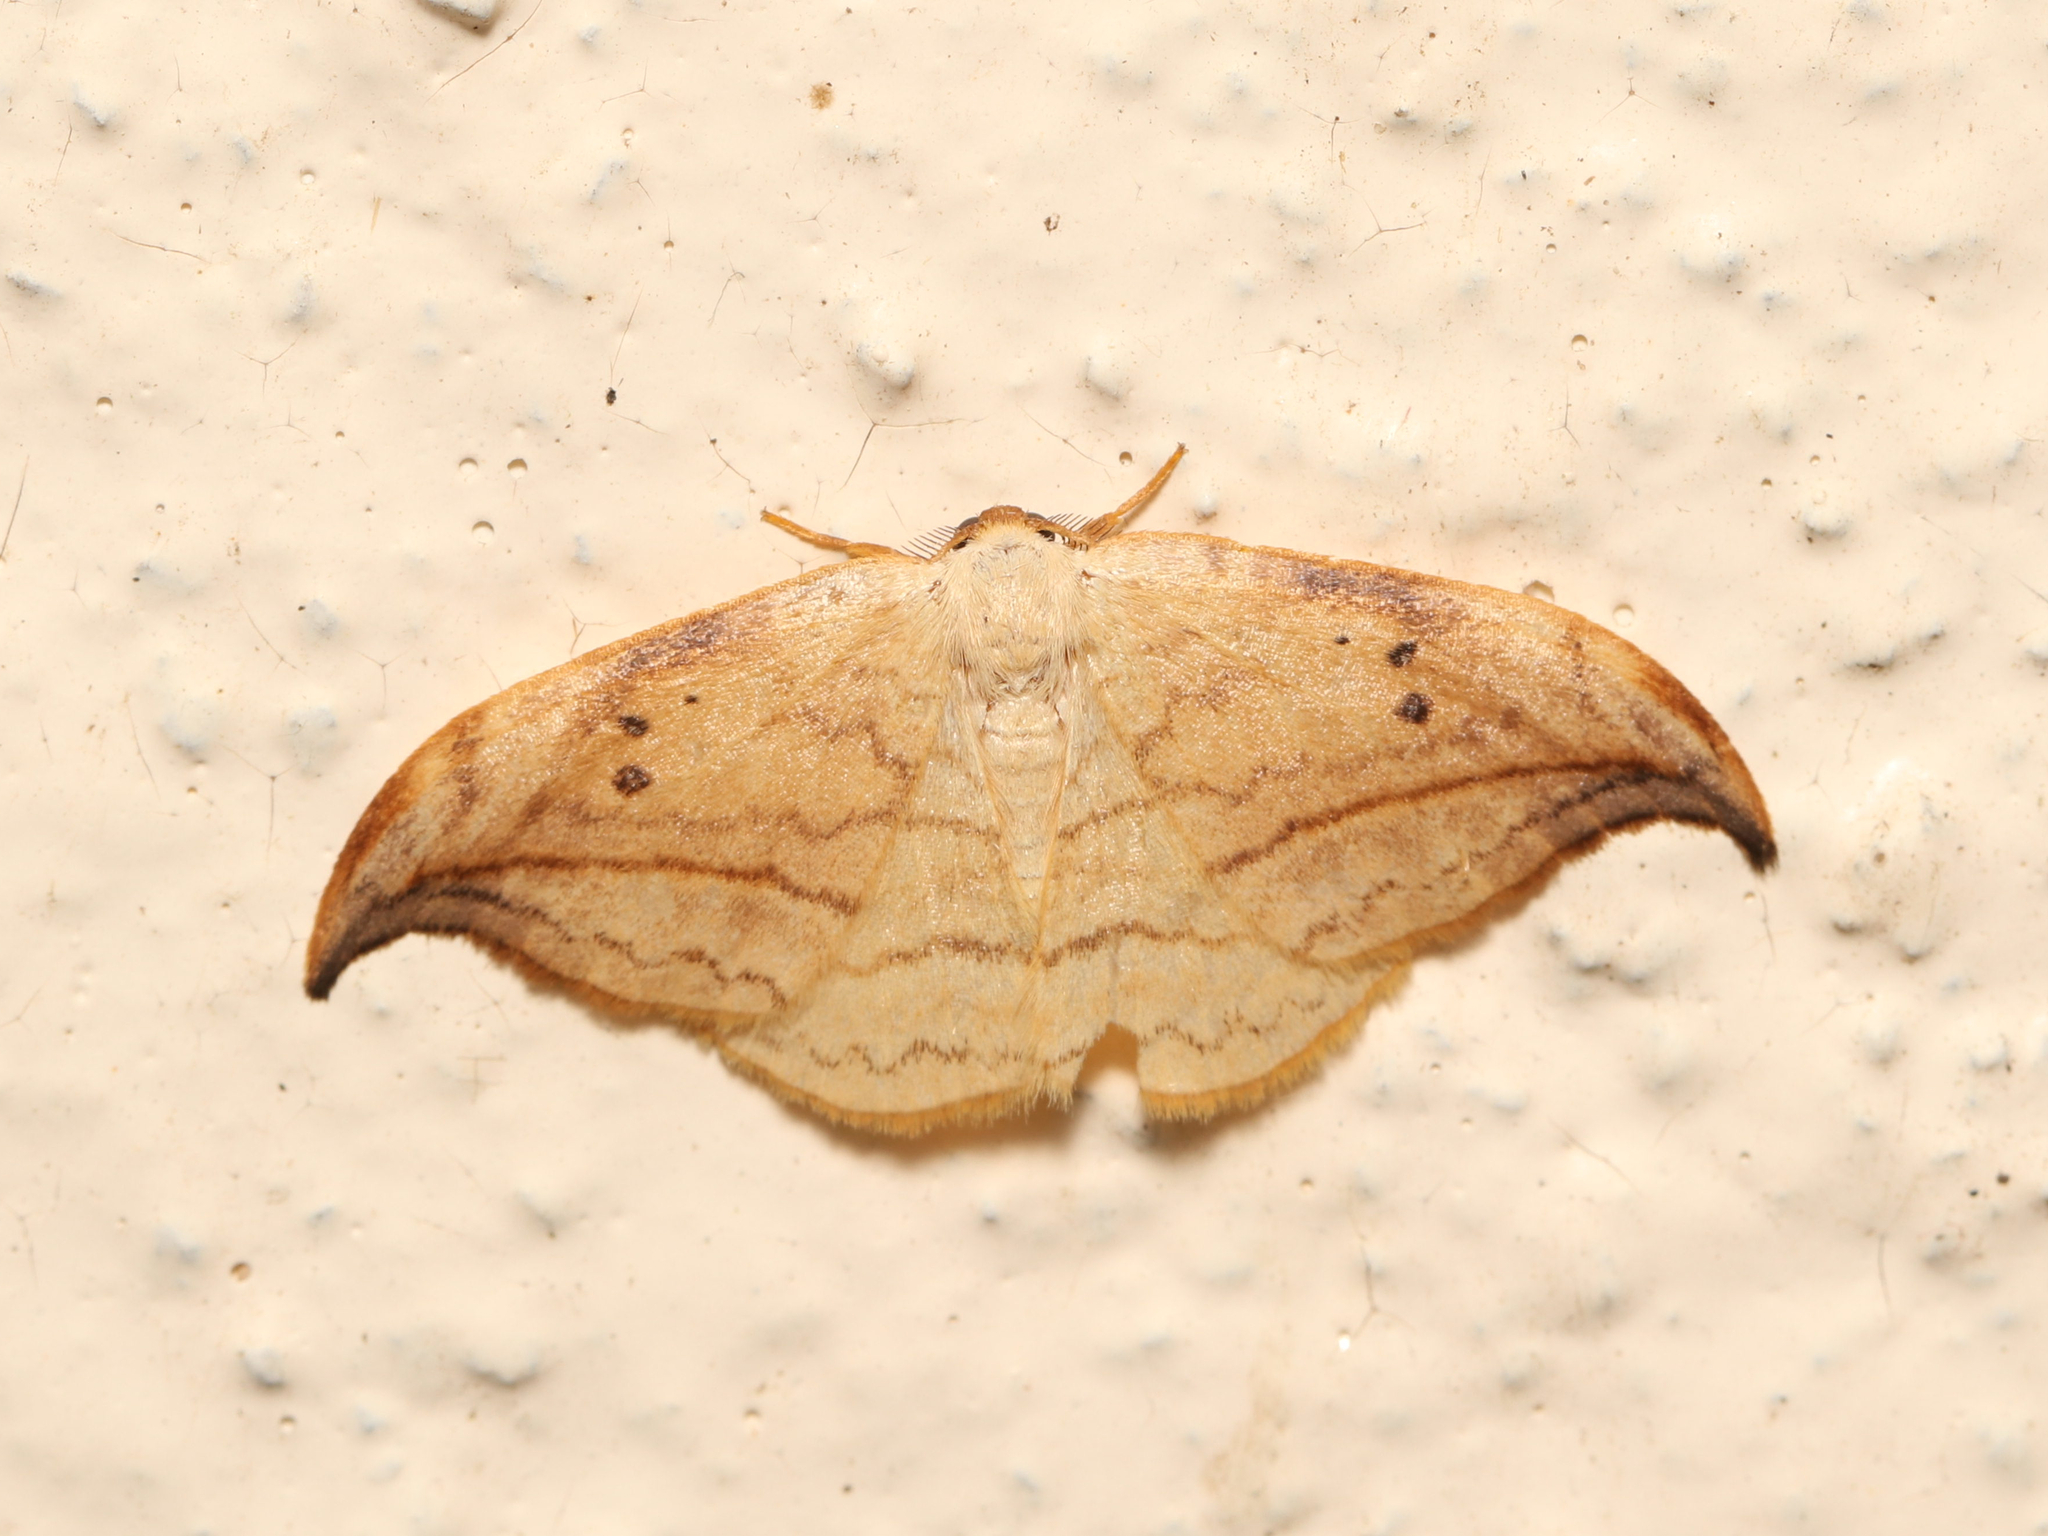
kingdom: Animalia
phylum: Arthropoda
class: Insecta
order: Lepidoptera
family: Drepanidae
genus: Drepana
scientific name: Drepana arcuata
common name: Arched hooktip moth
